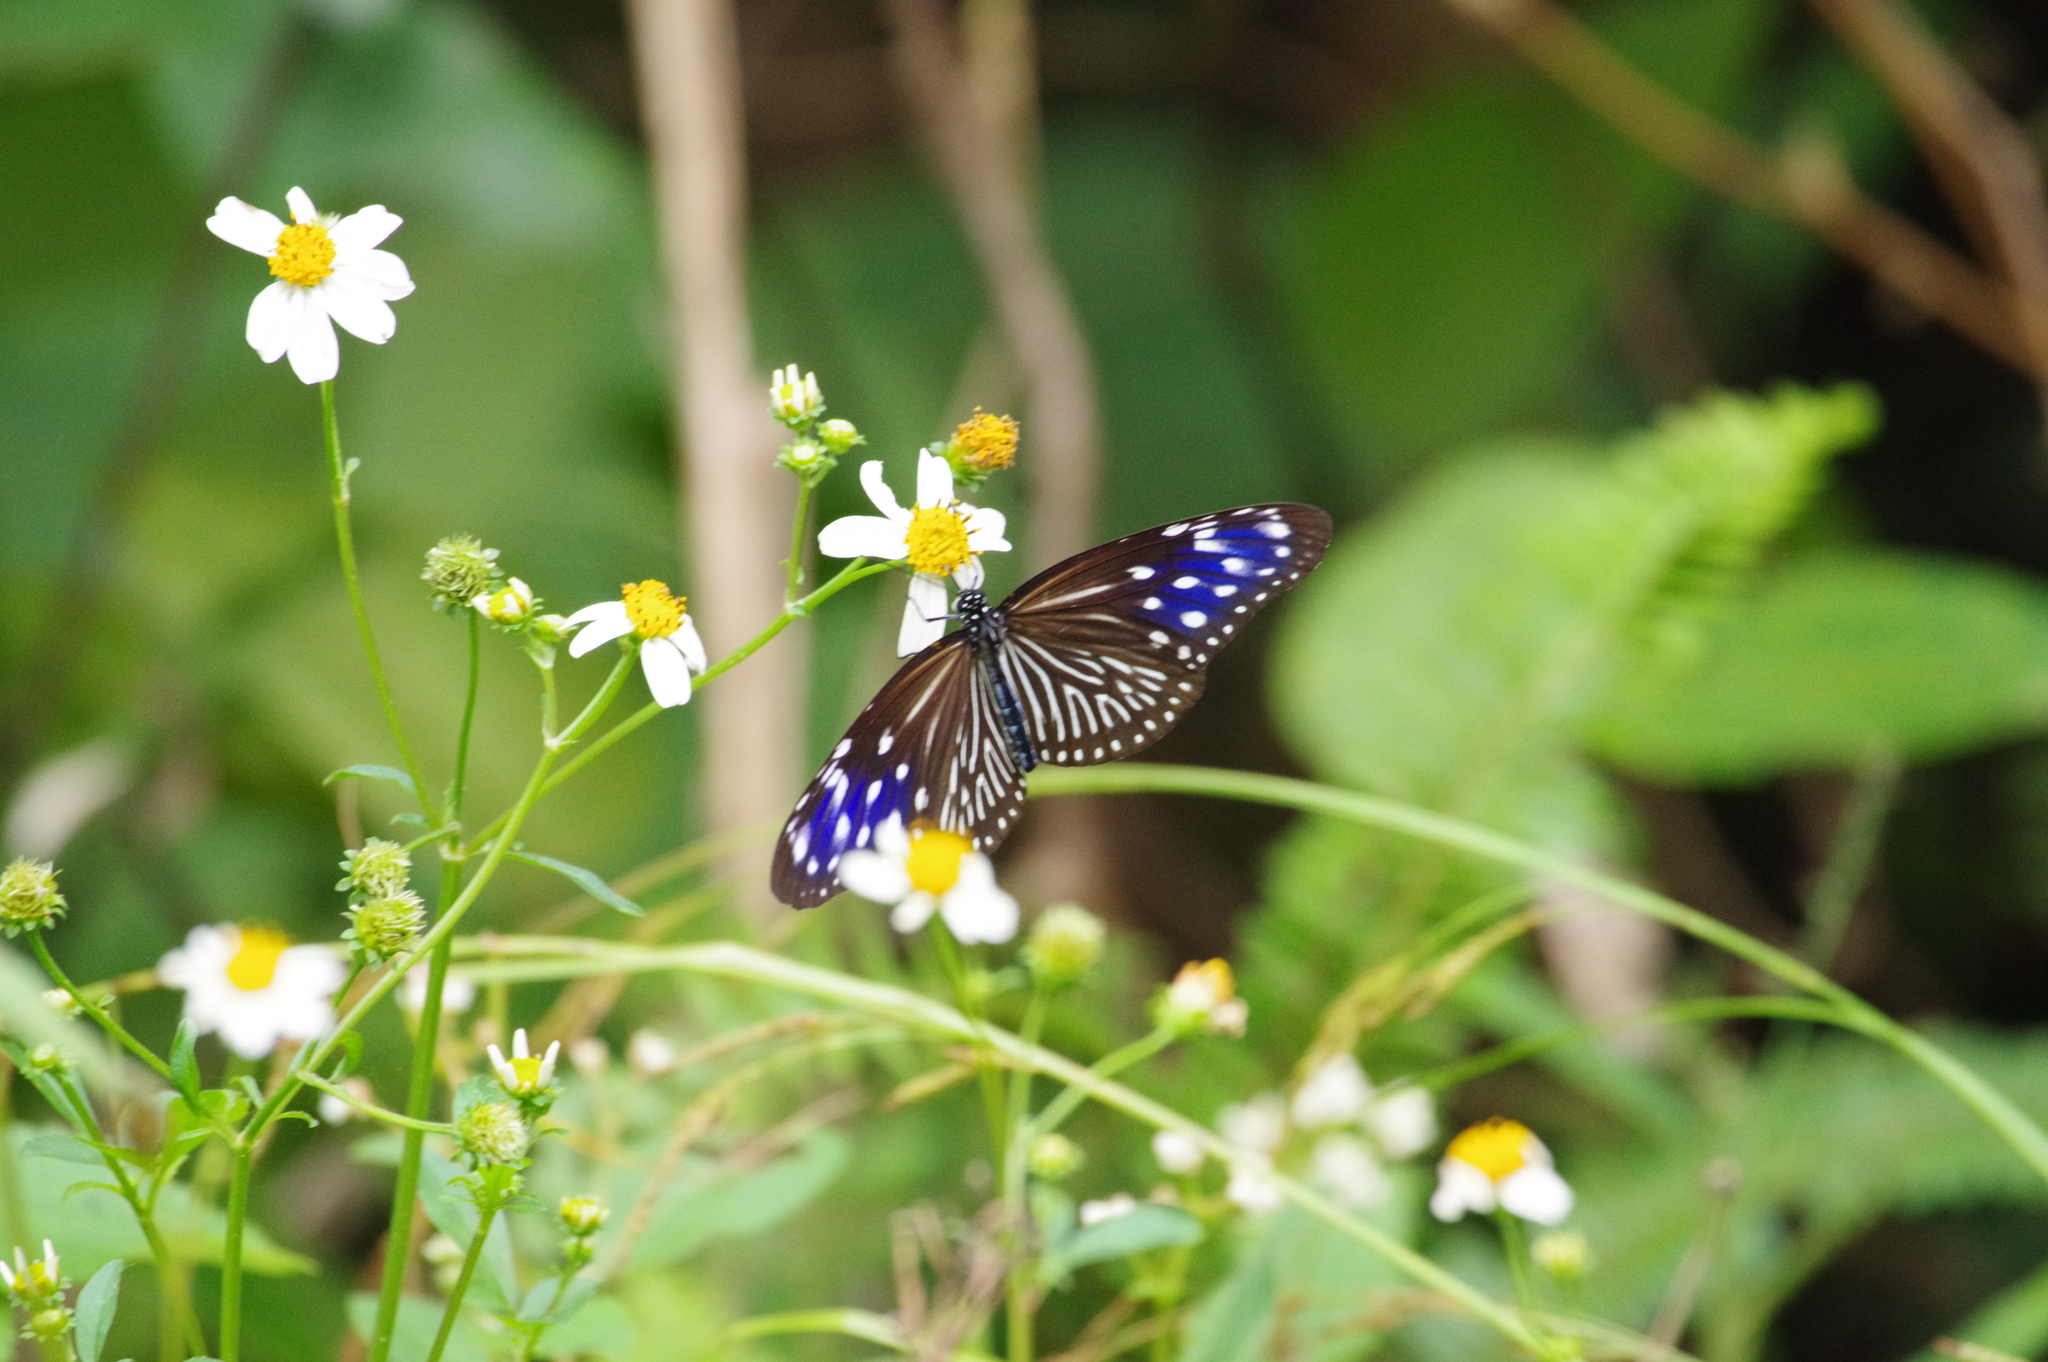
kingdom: Animalia
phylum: Arthropoda
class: Insecta
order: Lepidoptera
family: Nymphalidae
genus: Euploea
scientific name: Euploea mulciber
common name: Striped blue crow butterfly
